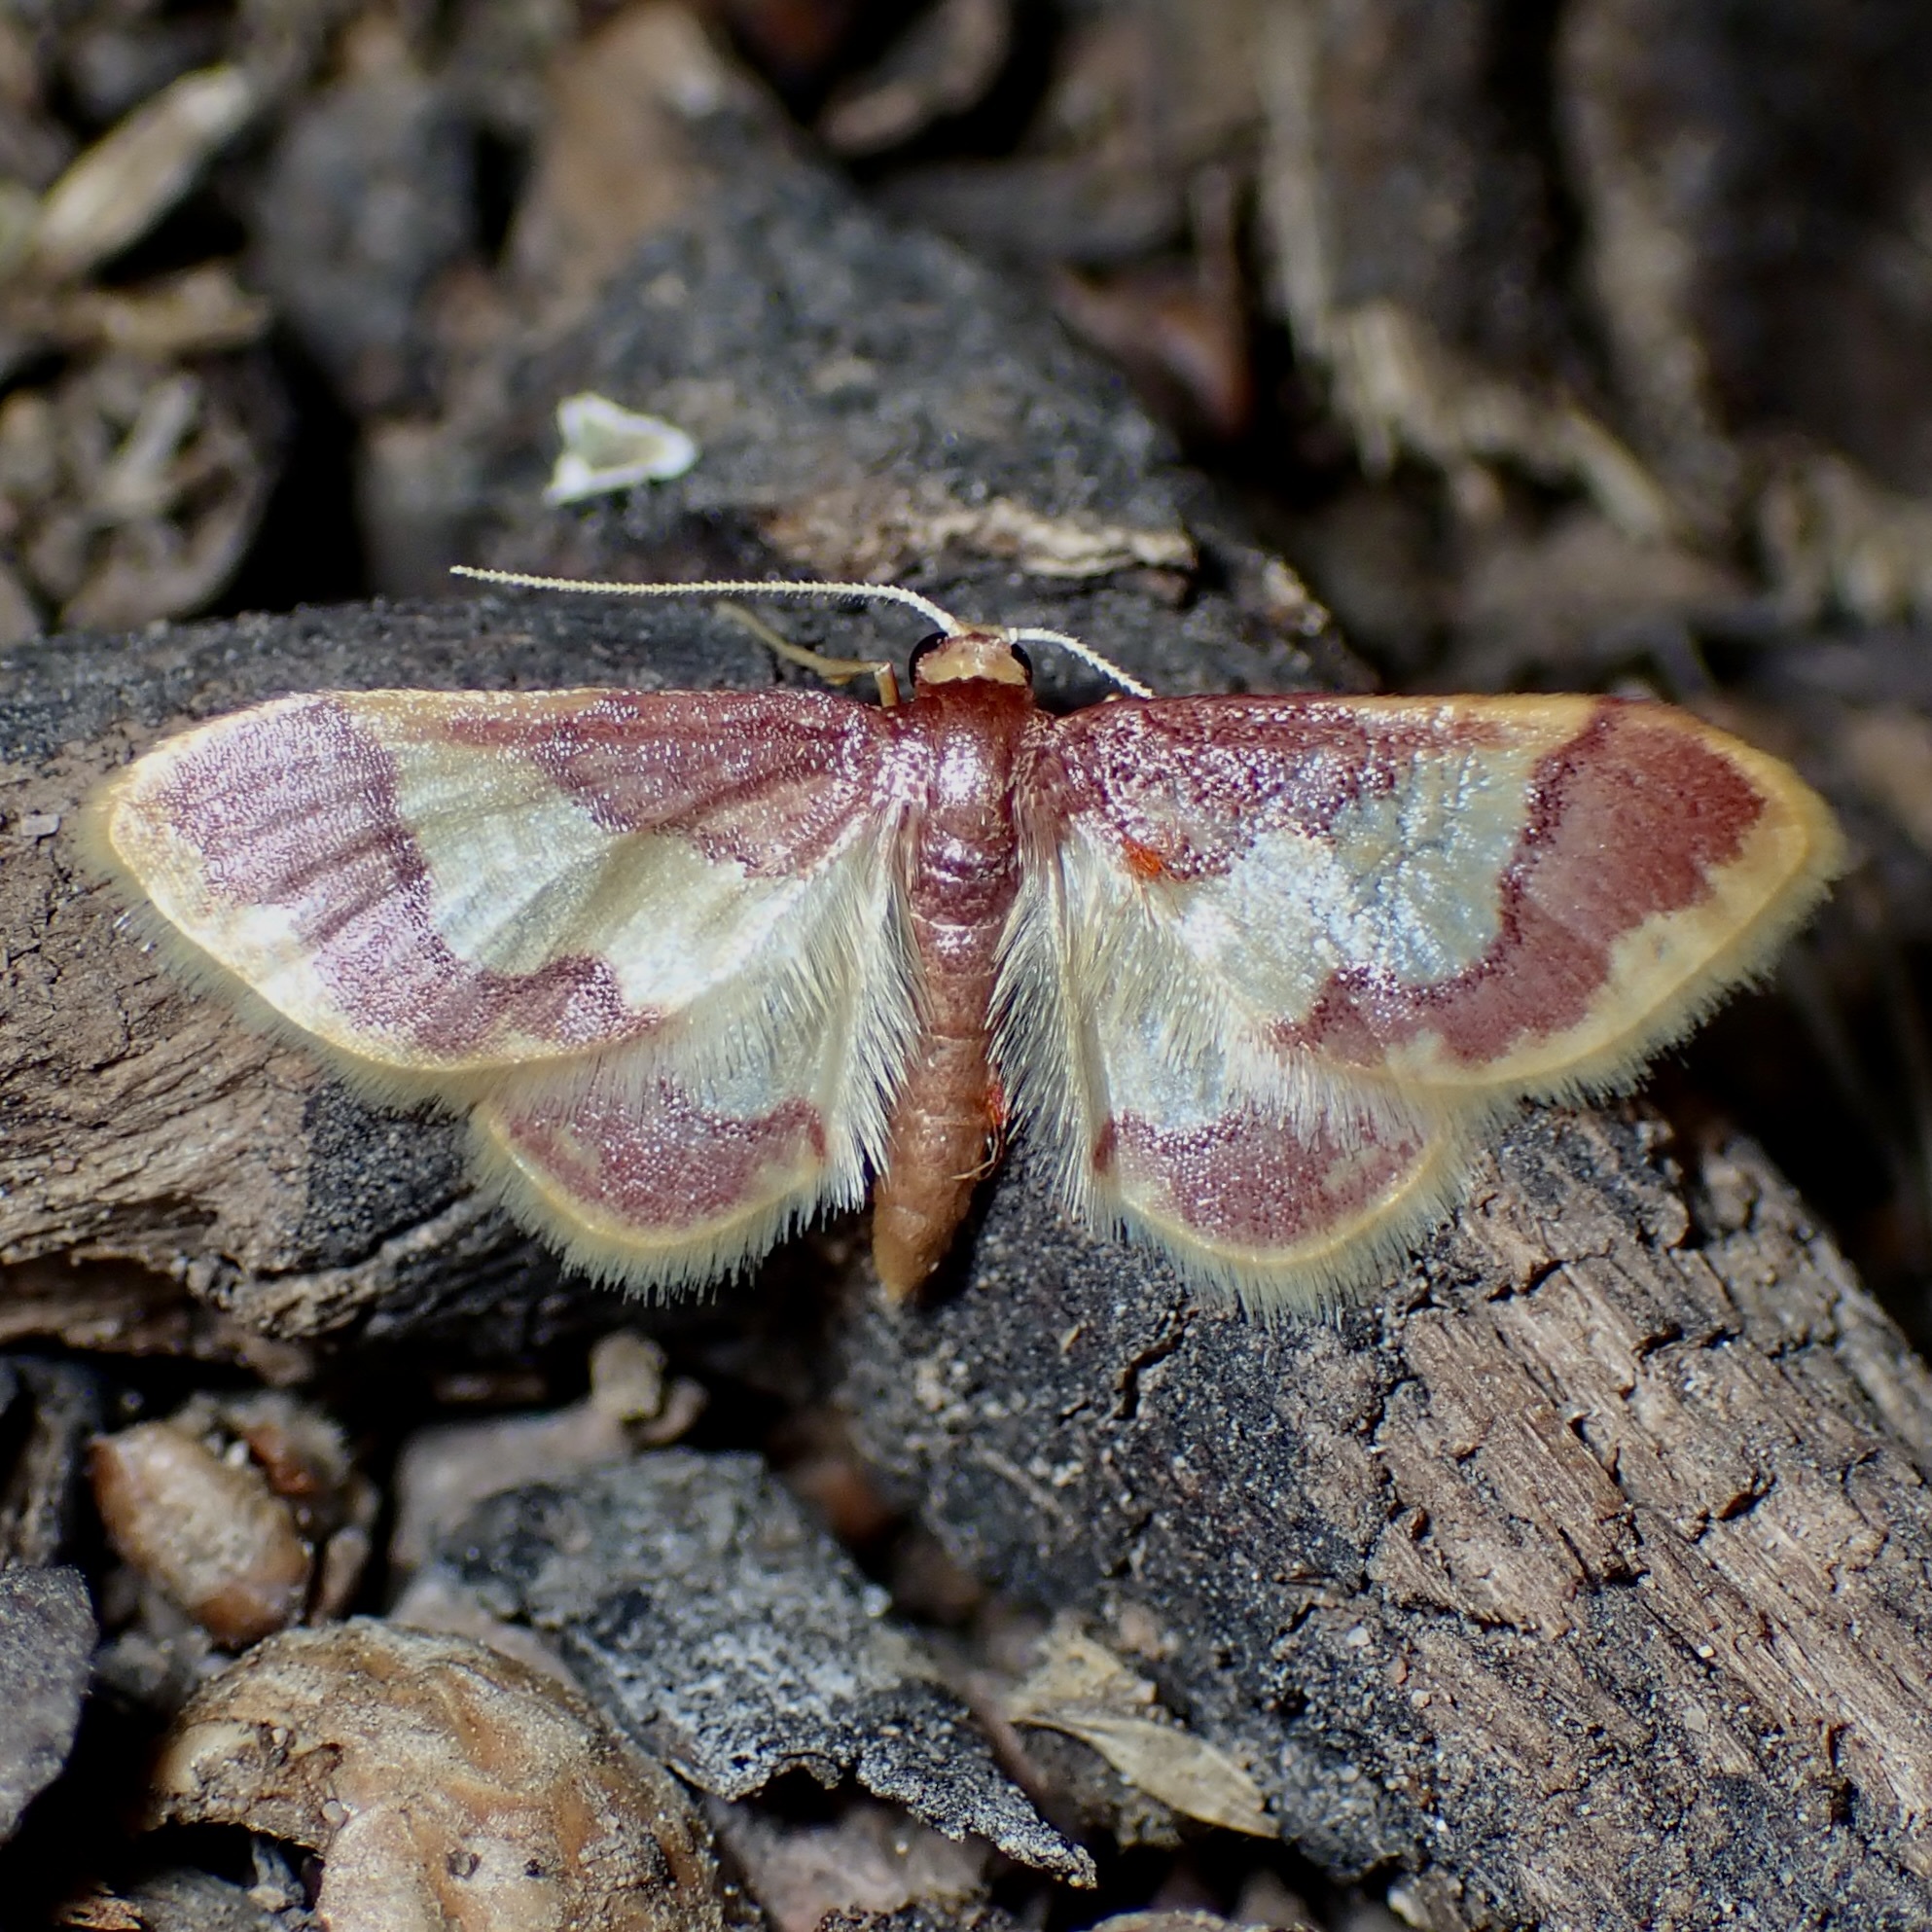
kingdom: Animalia
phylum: Arthropoda
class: Insecta
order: Lepidoptera
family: Geometridae
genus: Idaea
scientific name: Idaea basinta
